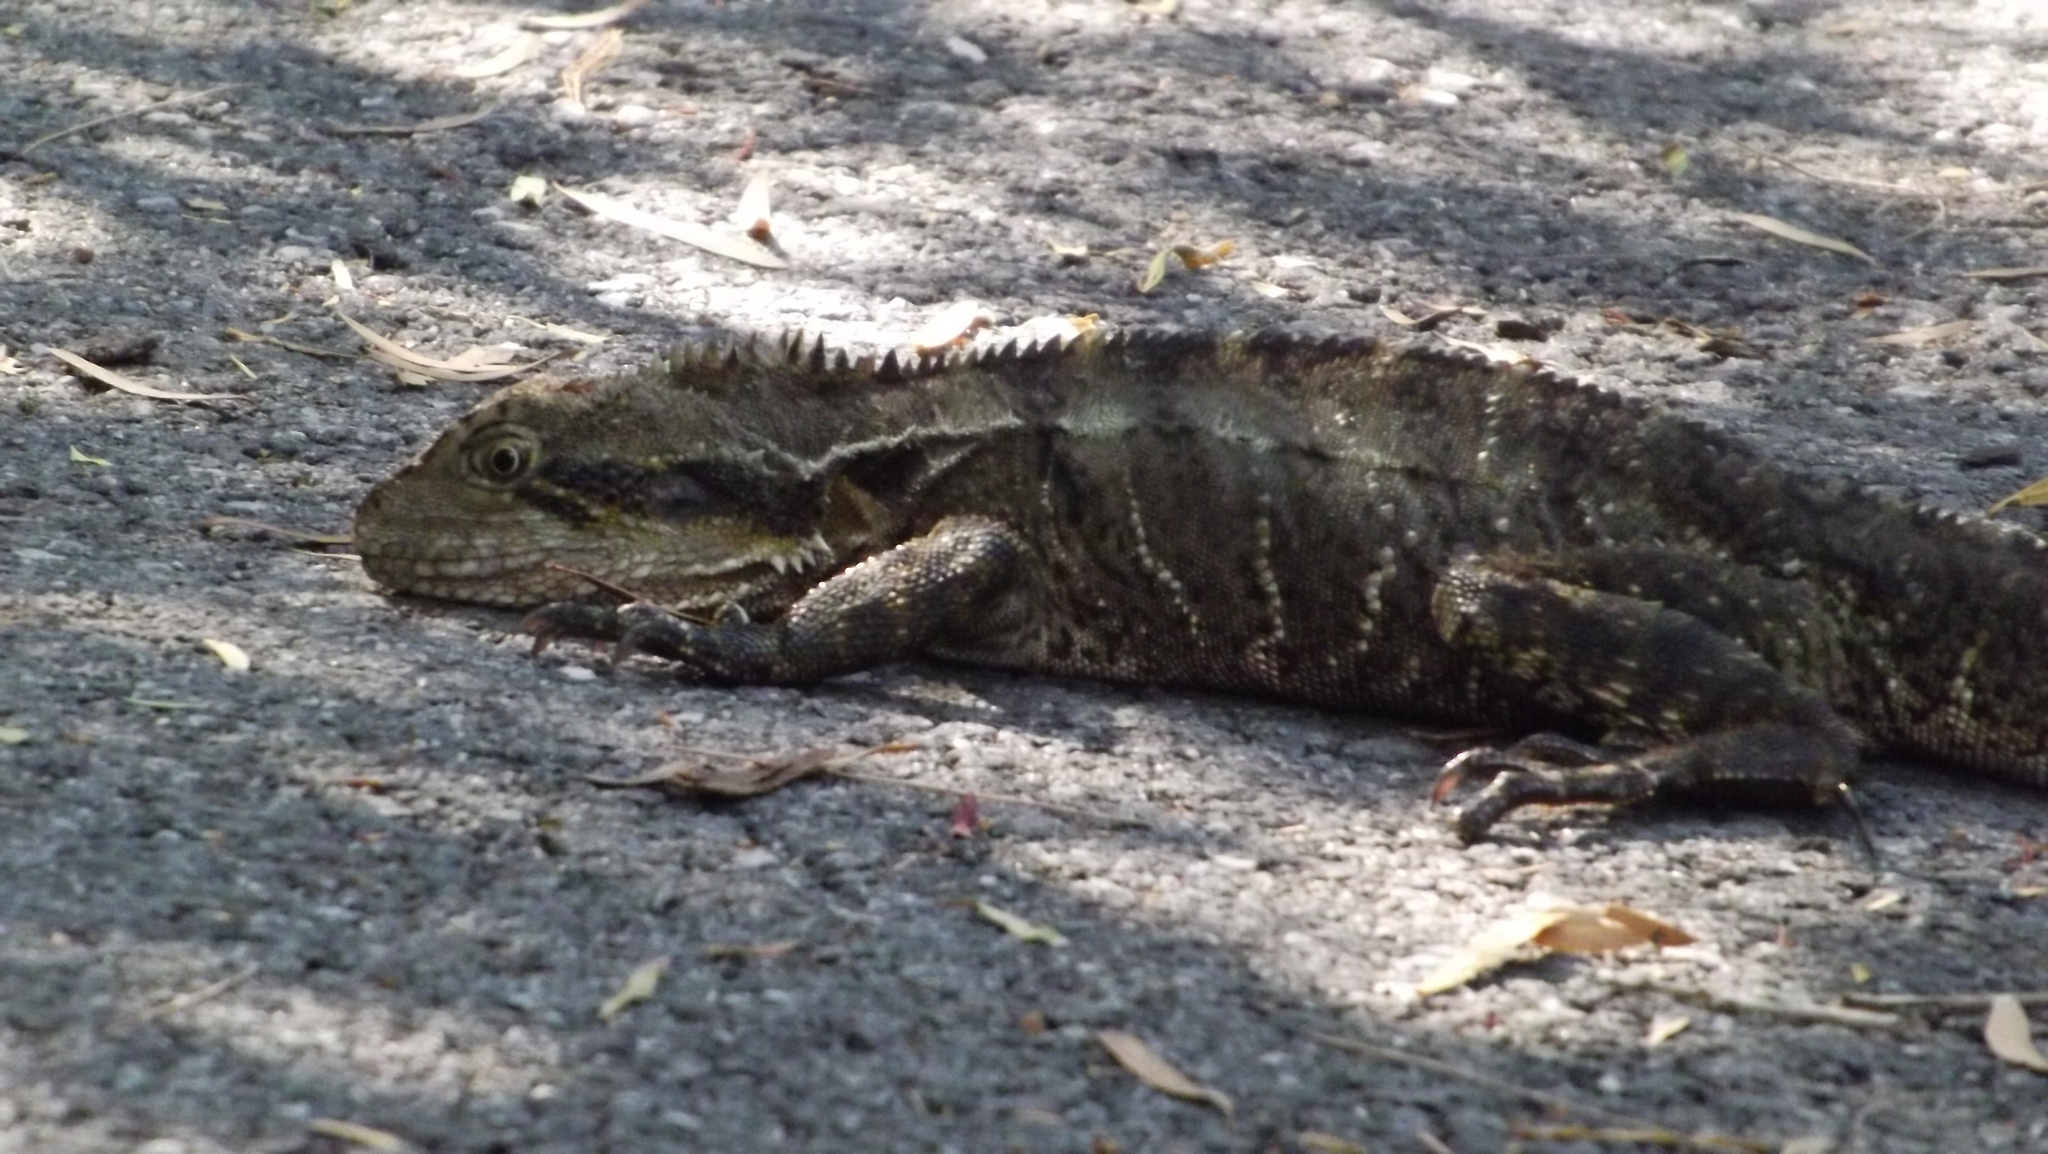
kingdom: Animalia
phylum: Chordata
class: Squamata
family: Agamidae
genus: Intellagama
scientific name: Intellagama lesueurii
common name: Eastern water dragon
